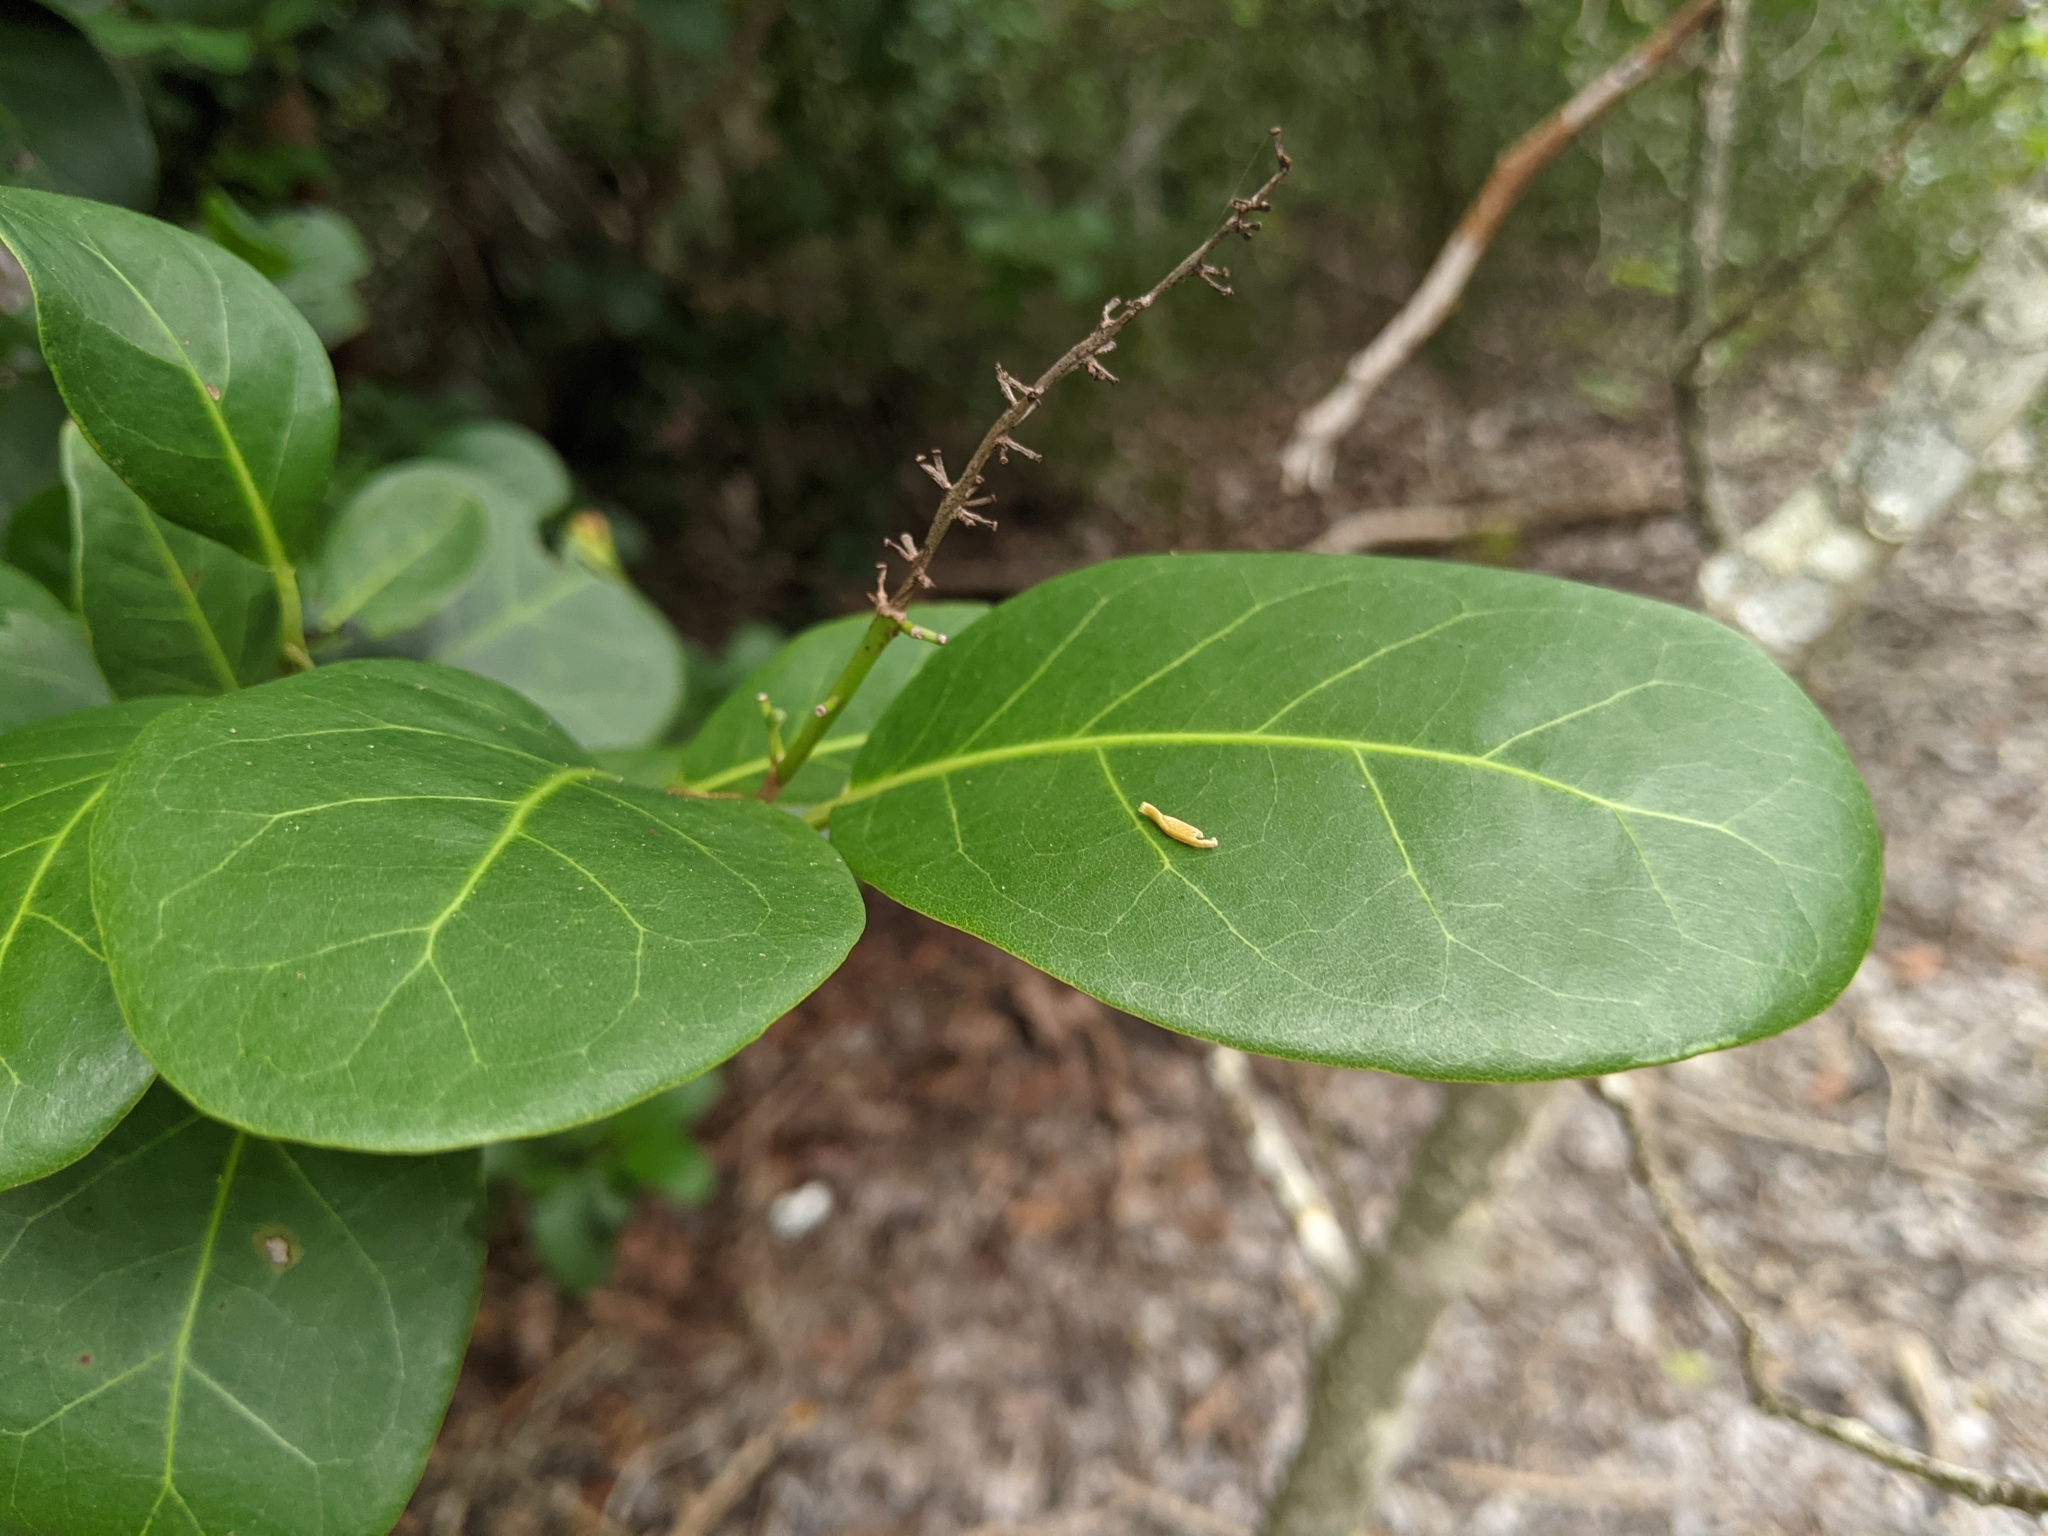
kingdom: Plantae
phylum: Tracheophyta
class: Magnoliopsida
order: Caryophyllales
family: Polygonaceae
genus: Coccoloba
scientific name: Coccoloba diversifolia
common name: Pigeon-plum
